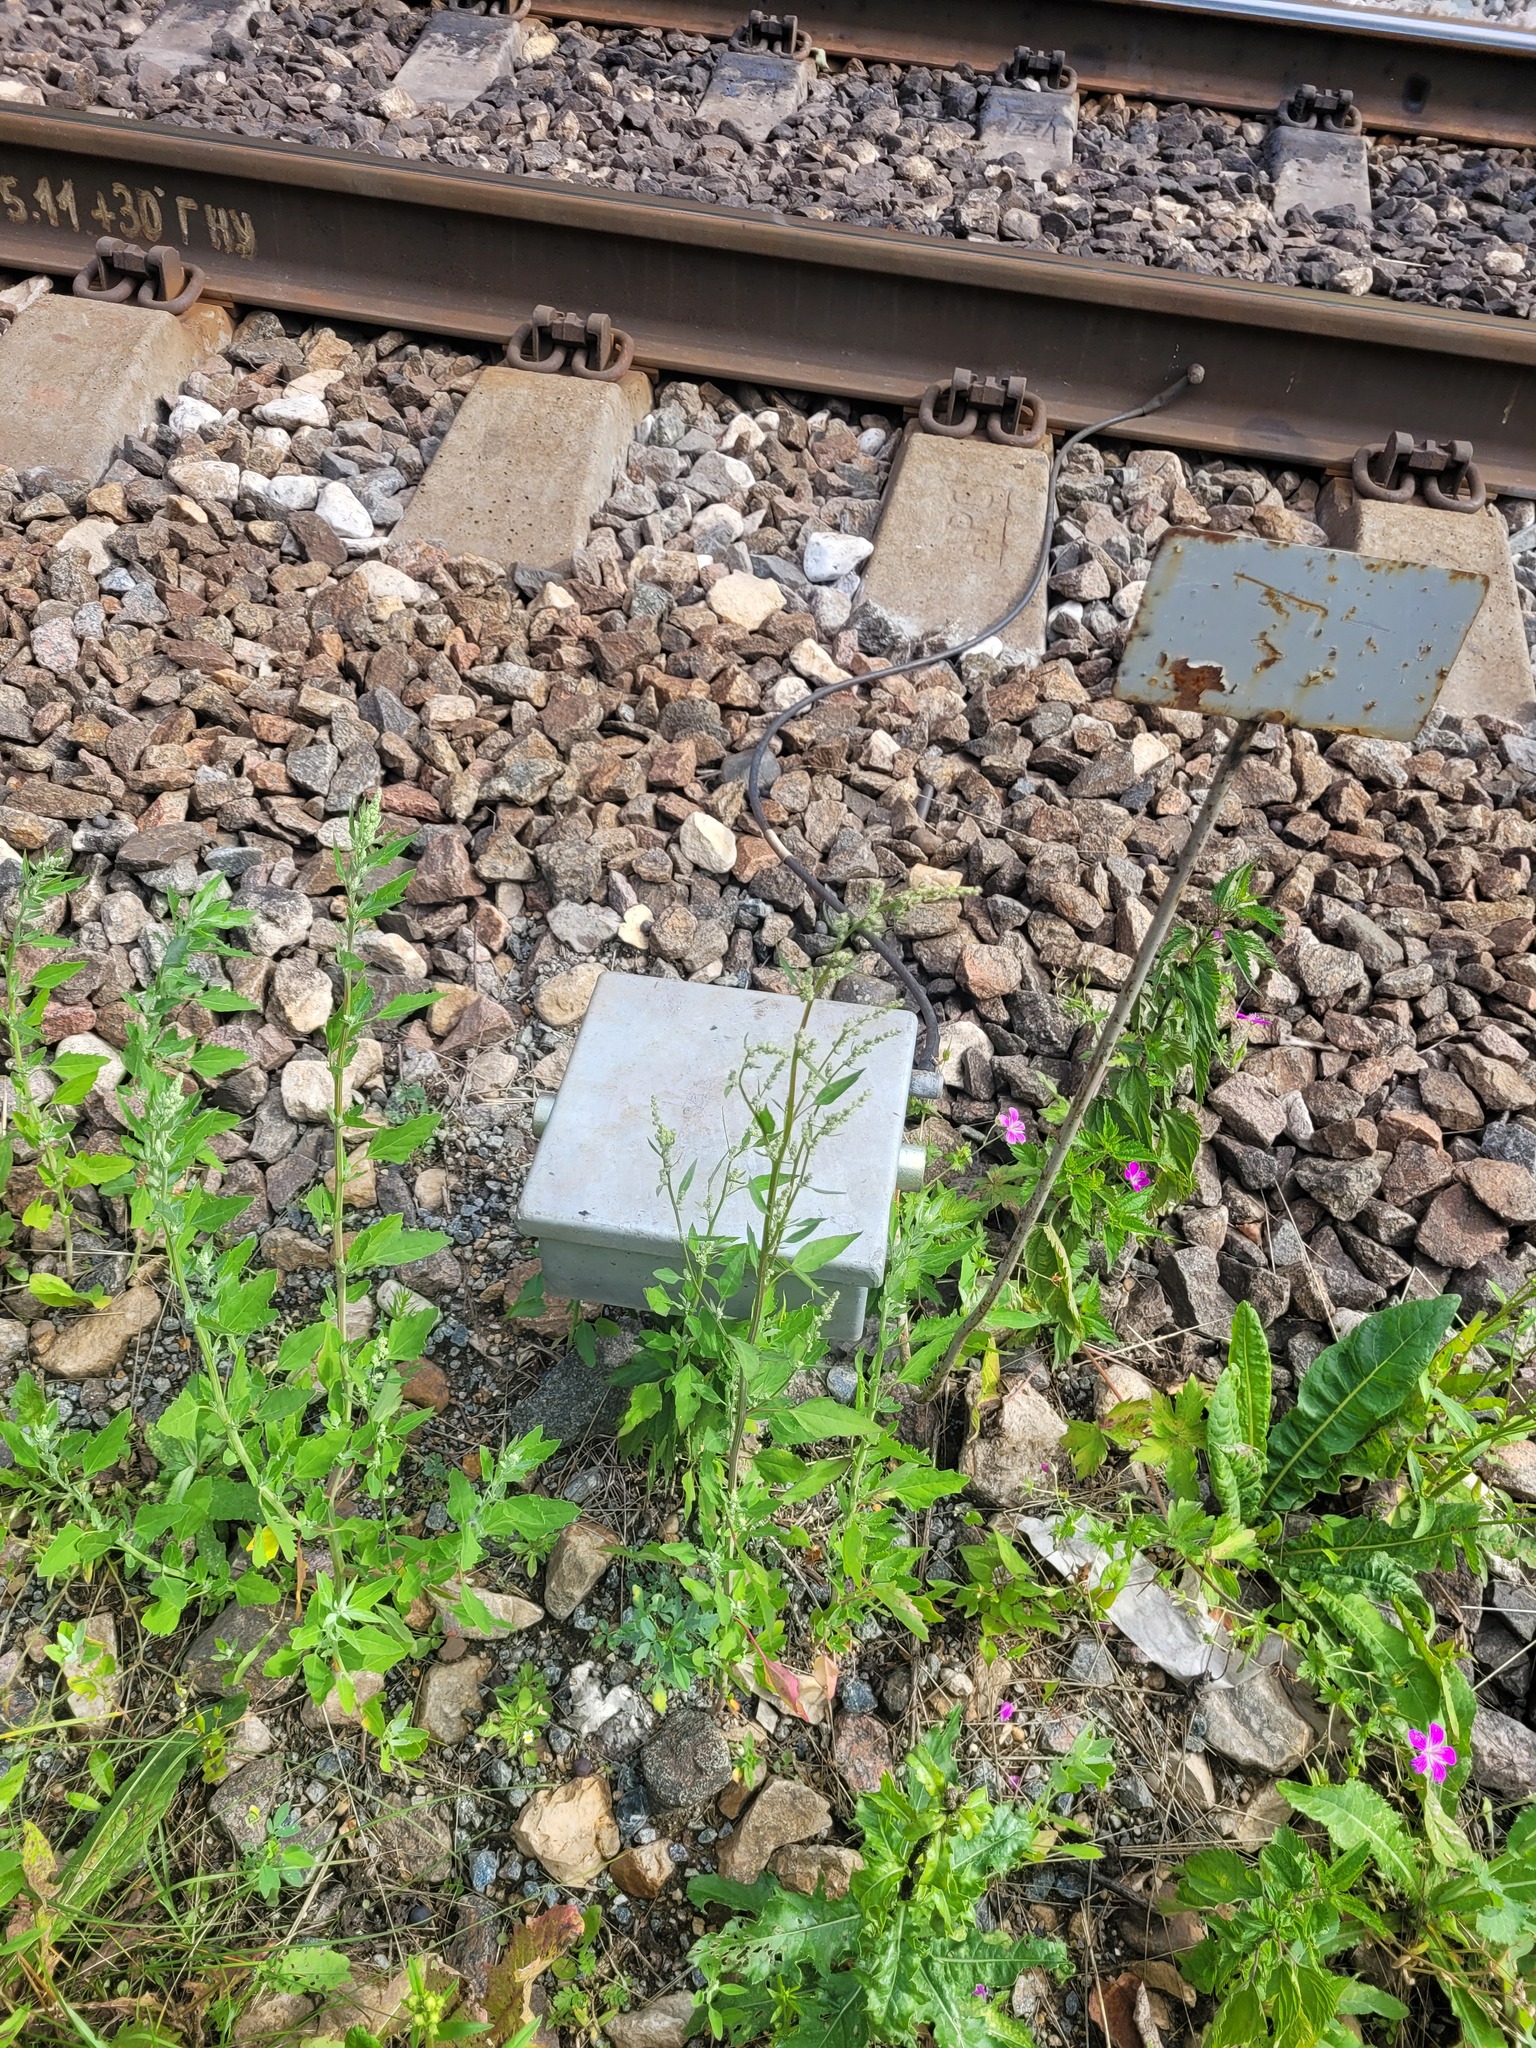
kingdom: Plantae
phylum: Tracheophyta
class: Magnoliopsida
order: Caryophyllales
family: Amaranthaceae
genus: Chenopodium
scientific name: Chenopodium album
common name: Fat-hen
